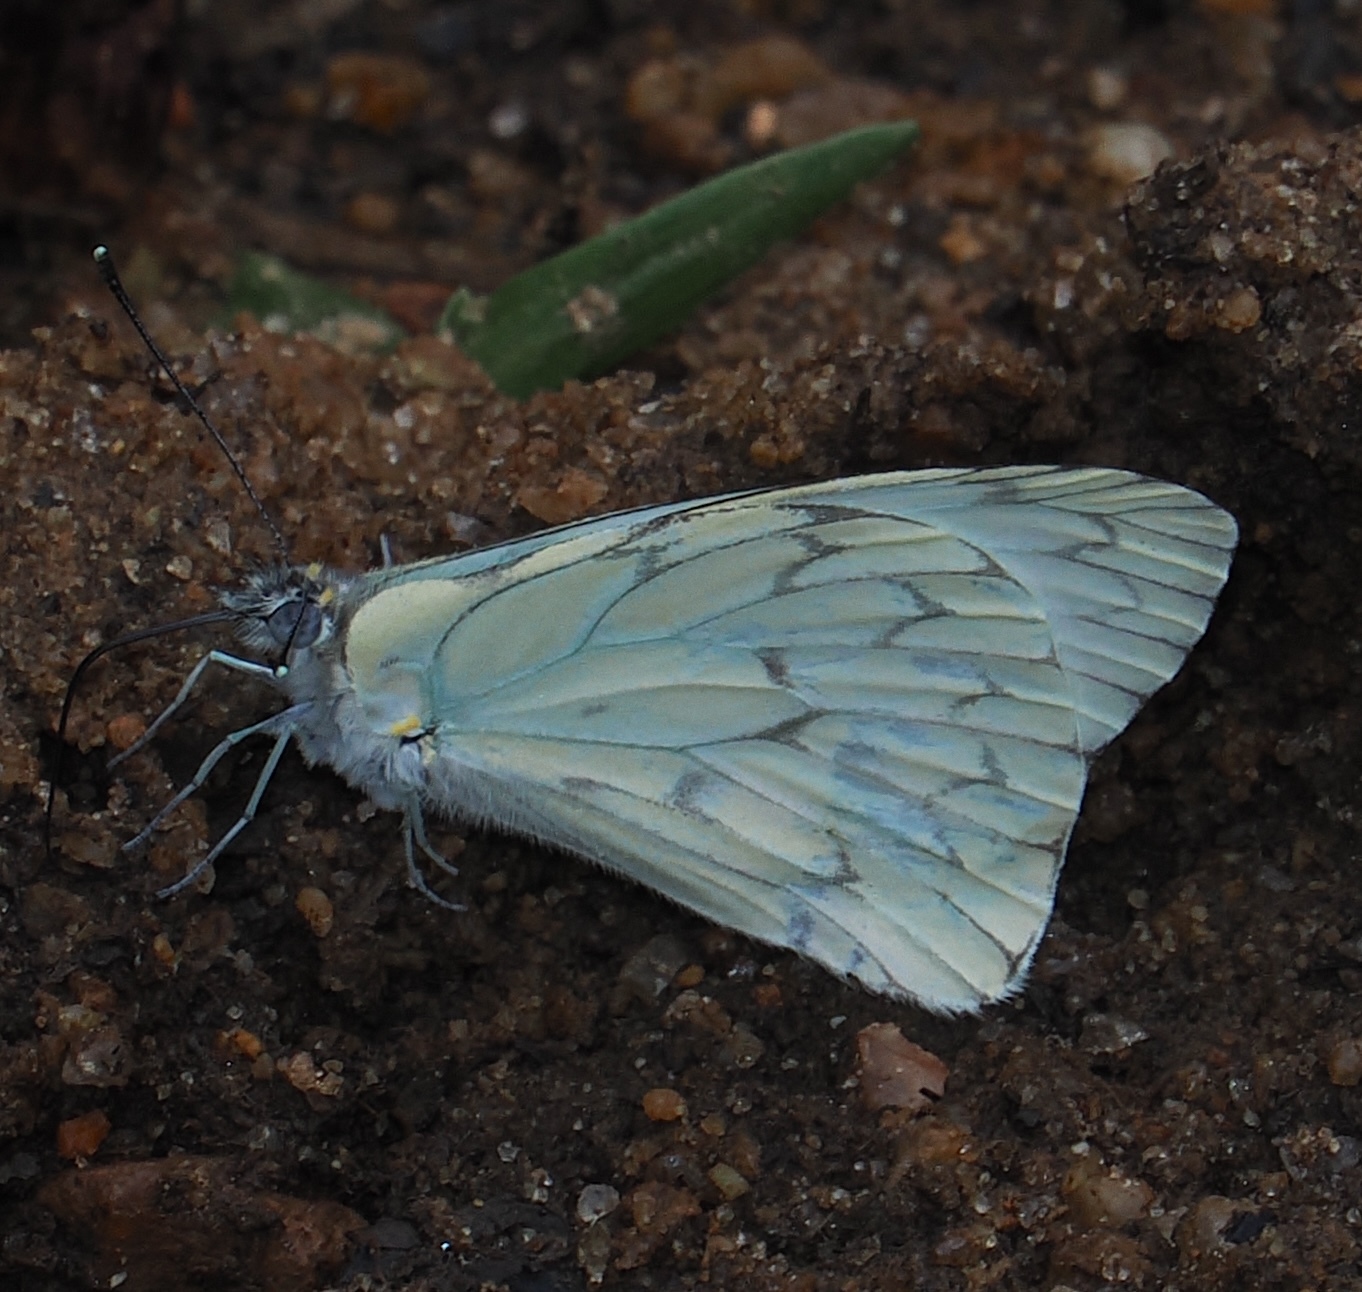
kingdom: Animalia
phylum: Arthropoda
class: Insecta
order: Lepidoptera
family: Pieridae
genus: Hesperocharis
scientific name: Hesperocharis anguitia
